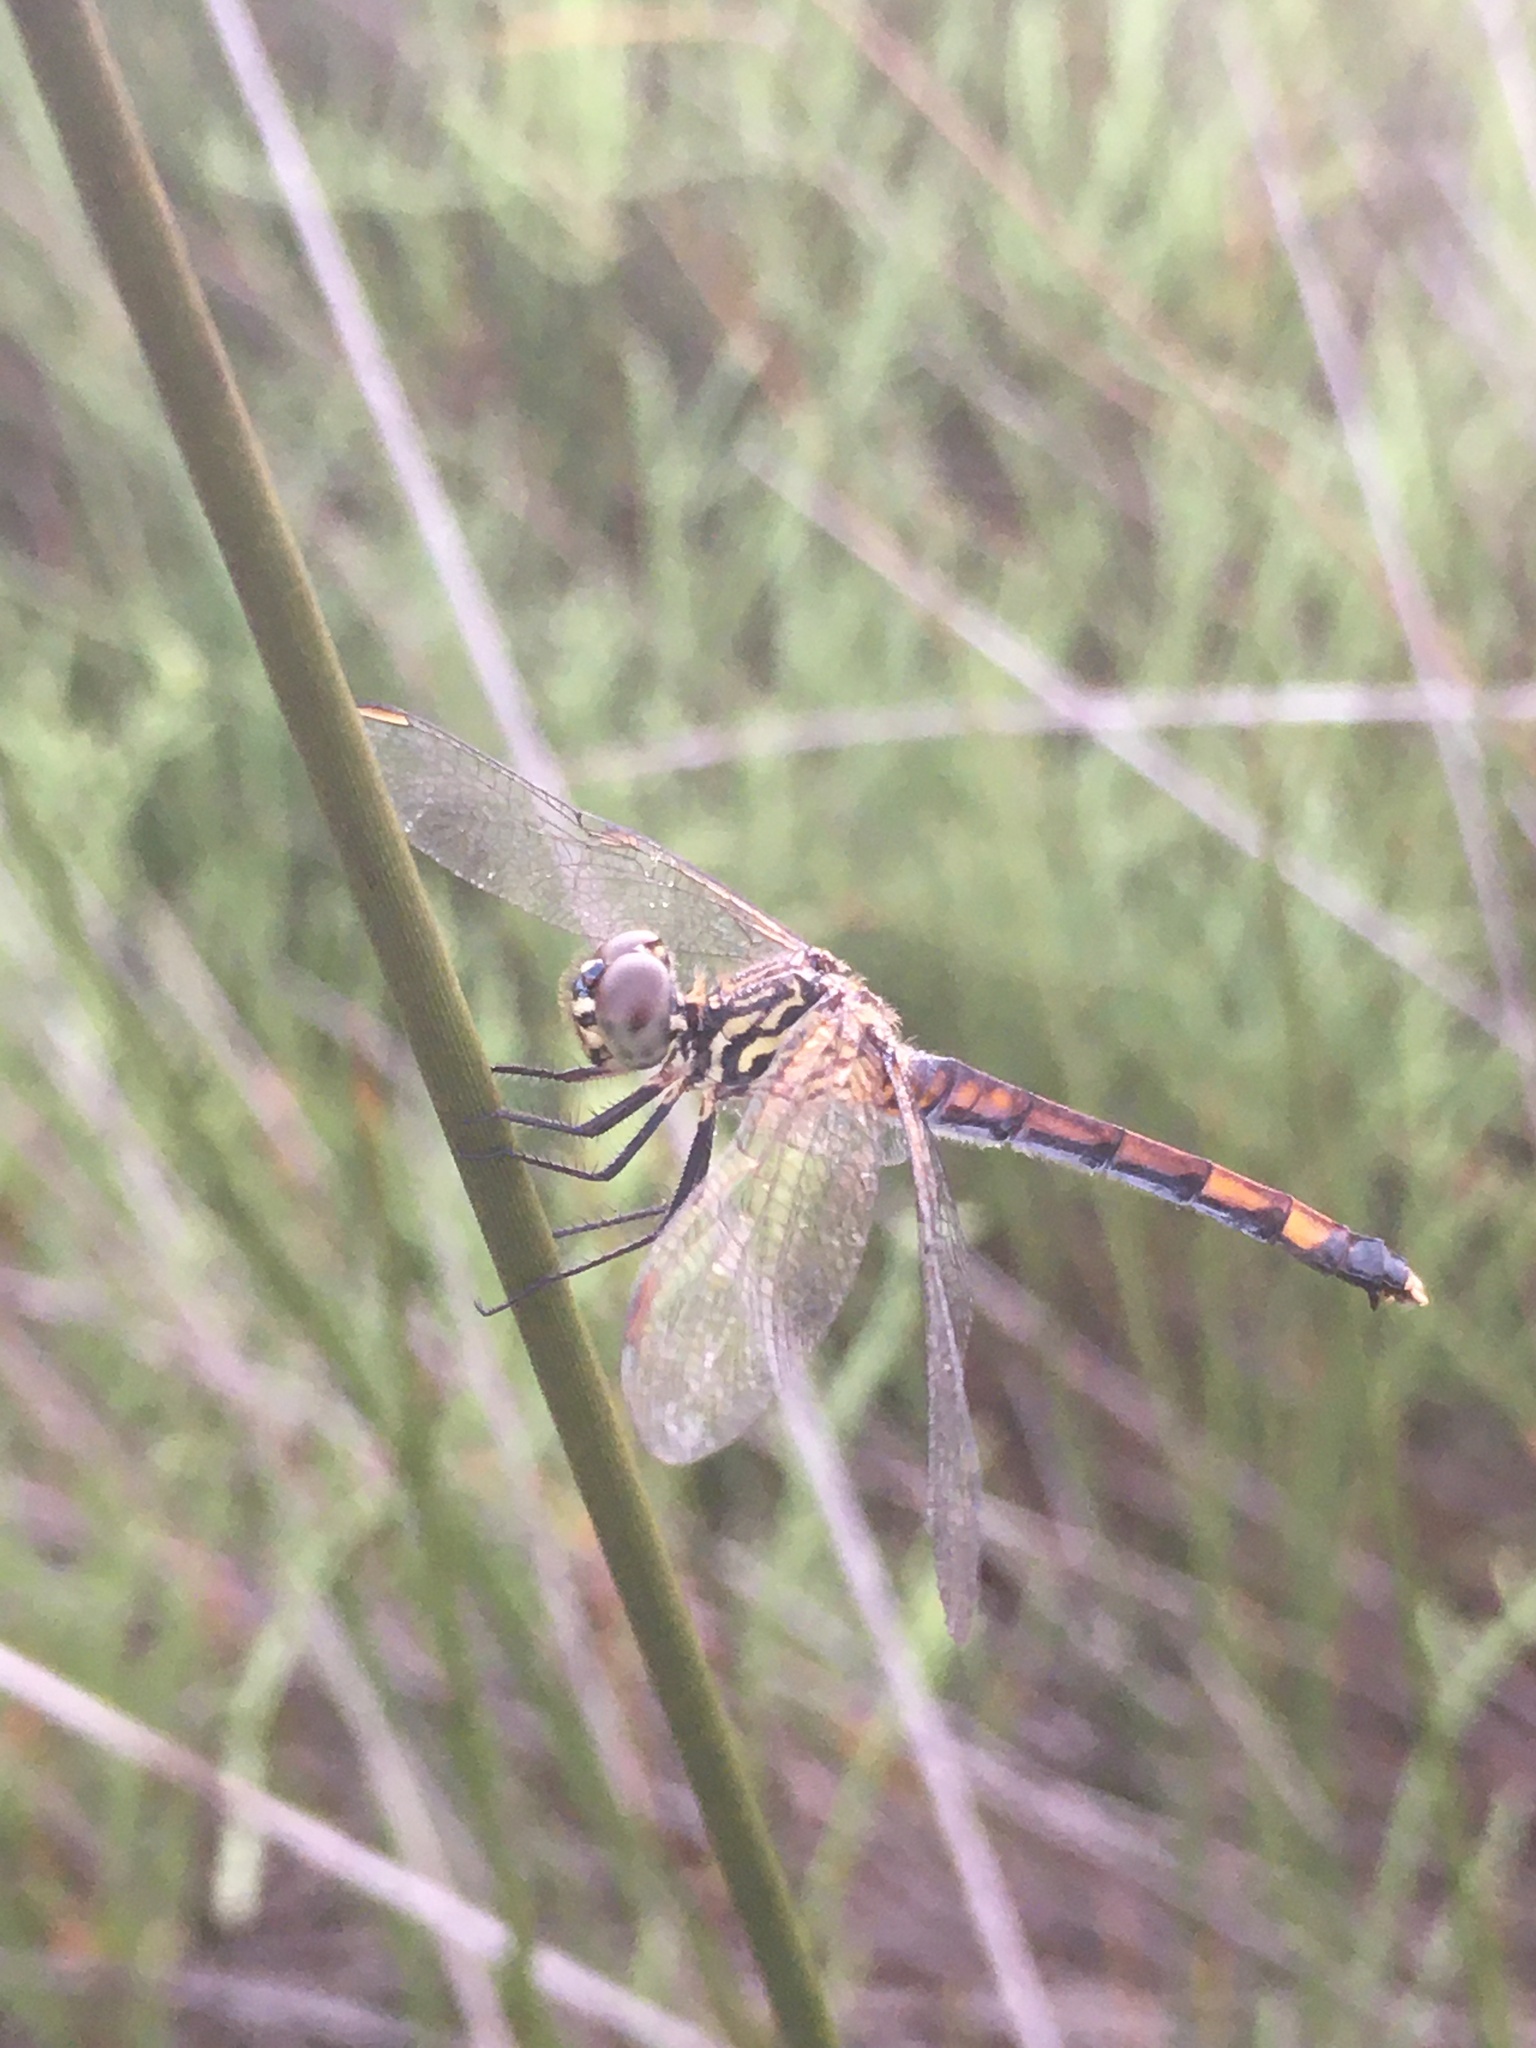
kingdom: Animalia
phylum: Arthropoda
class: Insecta
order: Odonata
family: Libellulidae
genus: Erythrodiplax
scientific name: Erythrodiplax berenice
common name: Seaside dragonlet
